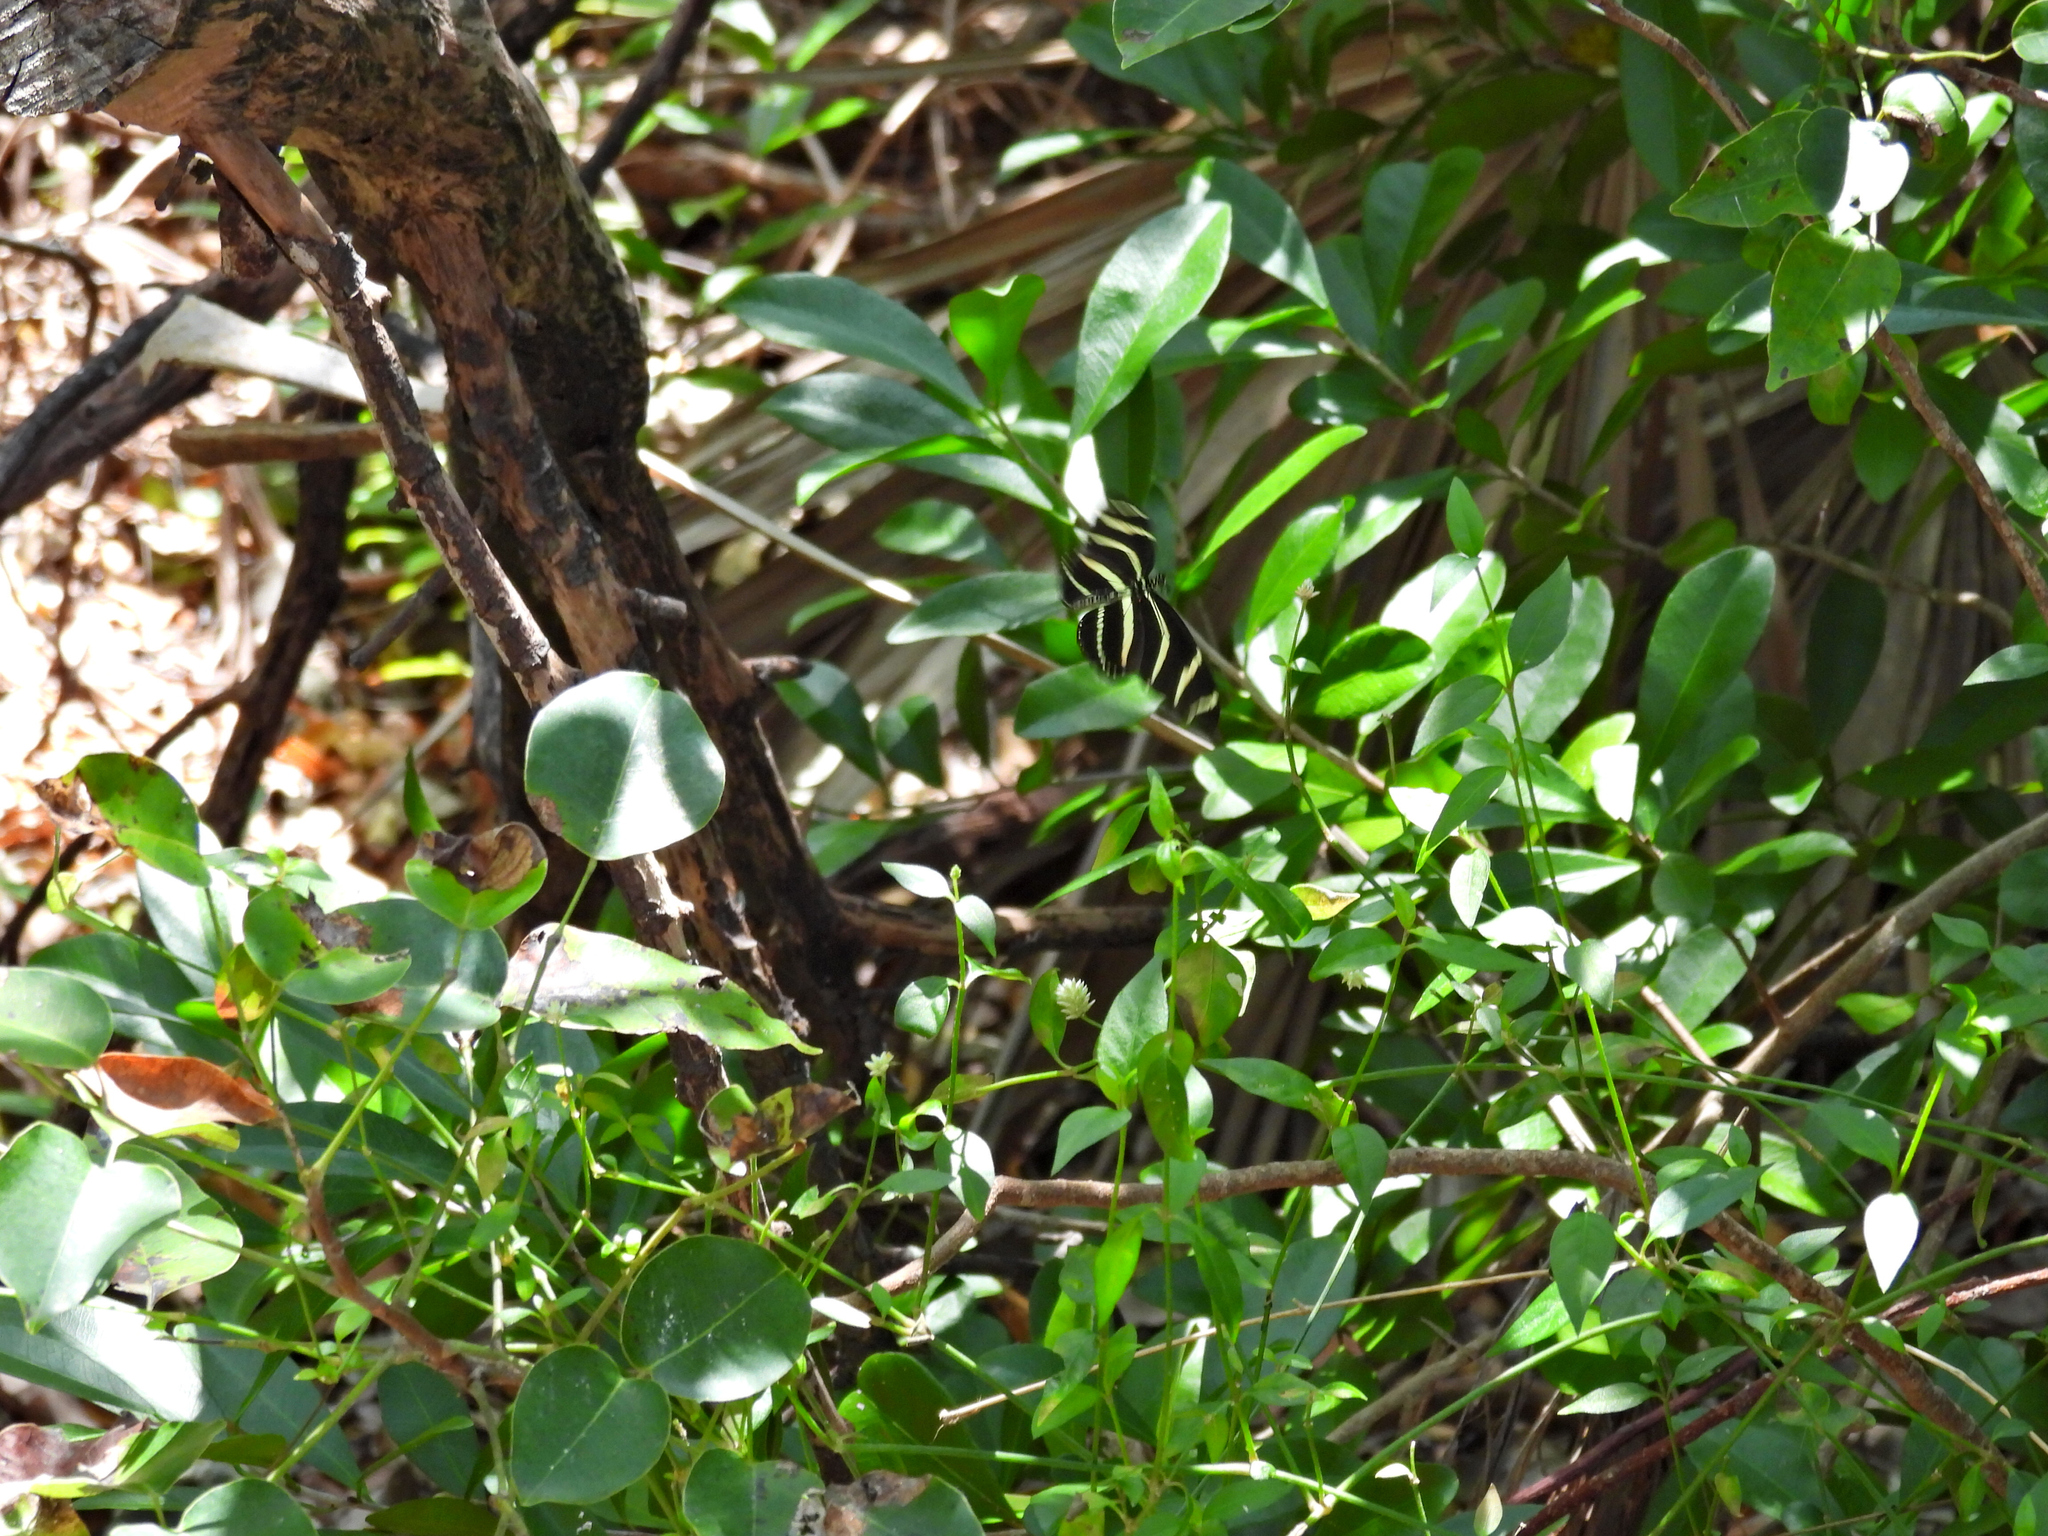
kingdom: Animalia
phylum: Arthropoda
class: Insecta
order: Lepidoptera
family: Nymphalidae
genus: Heliconius
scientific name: Heliconius charithonia
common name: Zebra long wing
